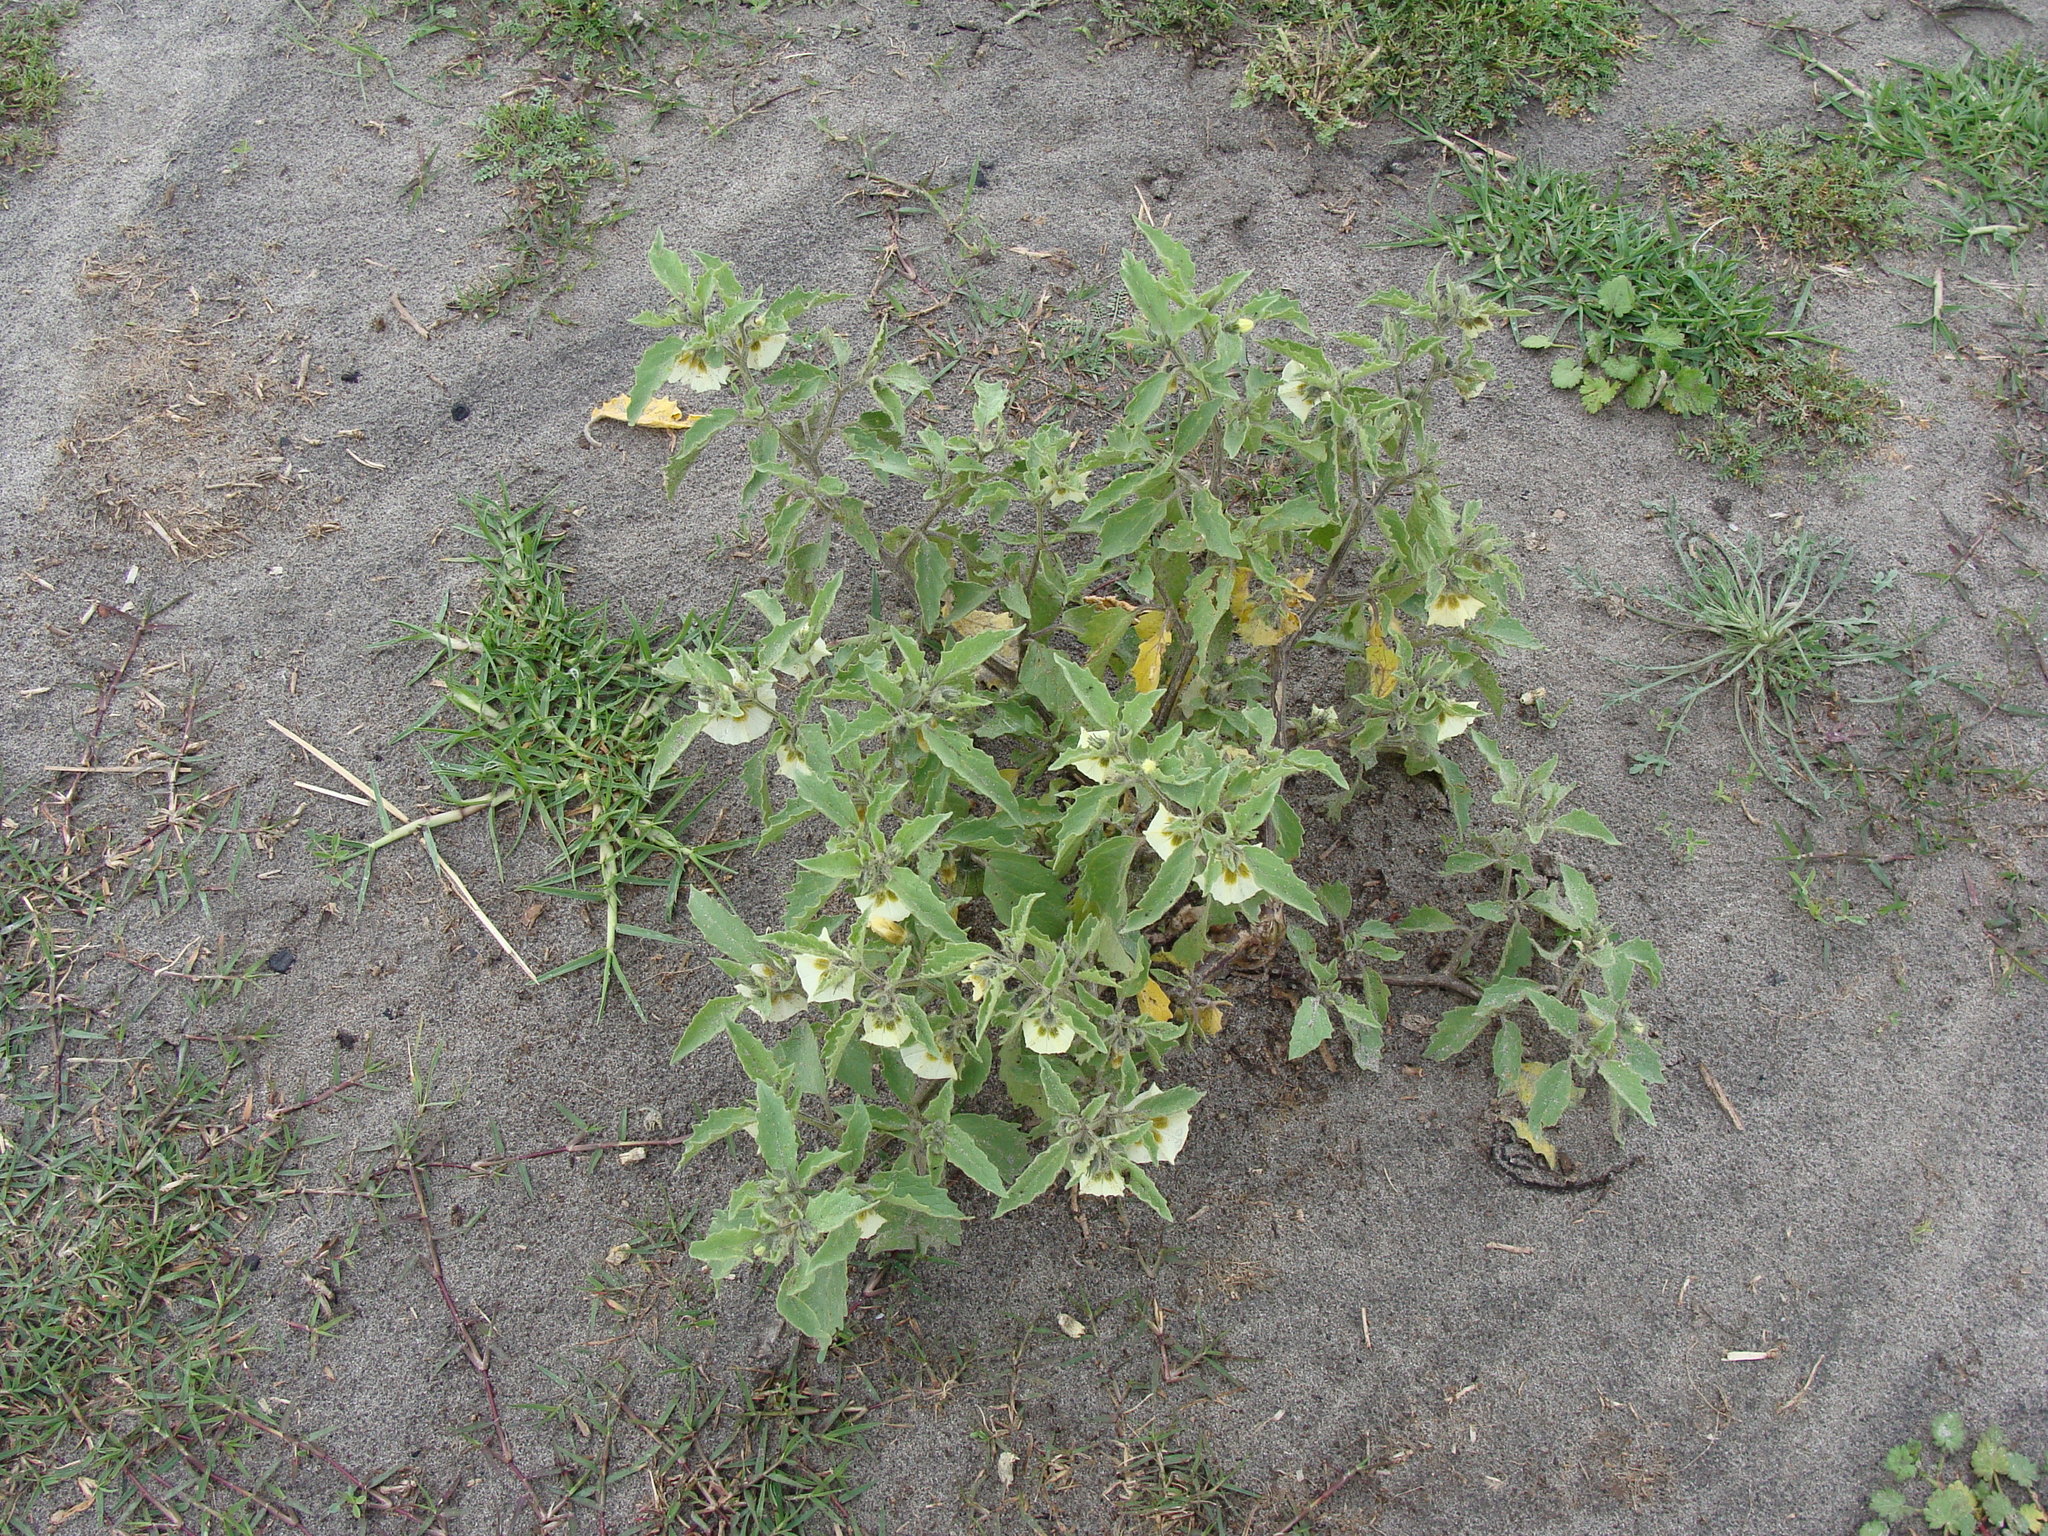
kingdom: Plantae
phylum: Tracheophyta
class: Magnoliopsida
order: Solanales
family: Solanaceae
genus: Physalis
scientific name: Physalis acutifolia
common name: Wright's ground-cherry
